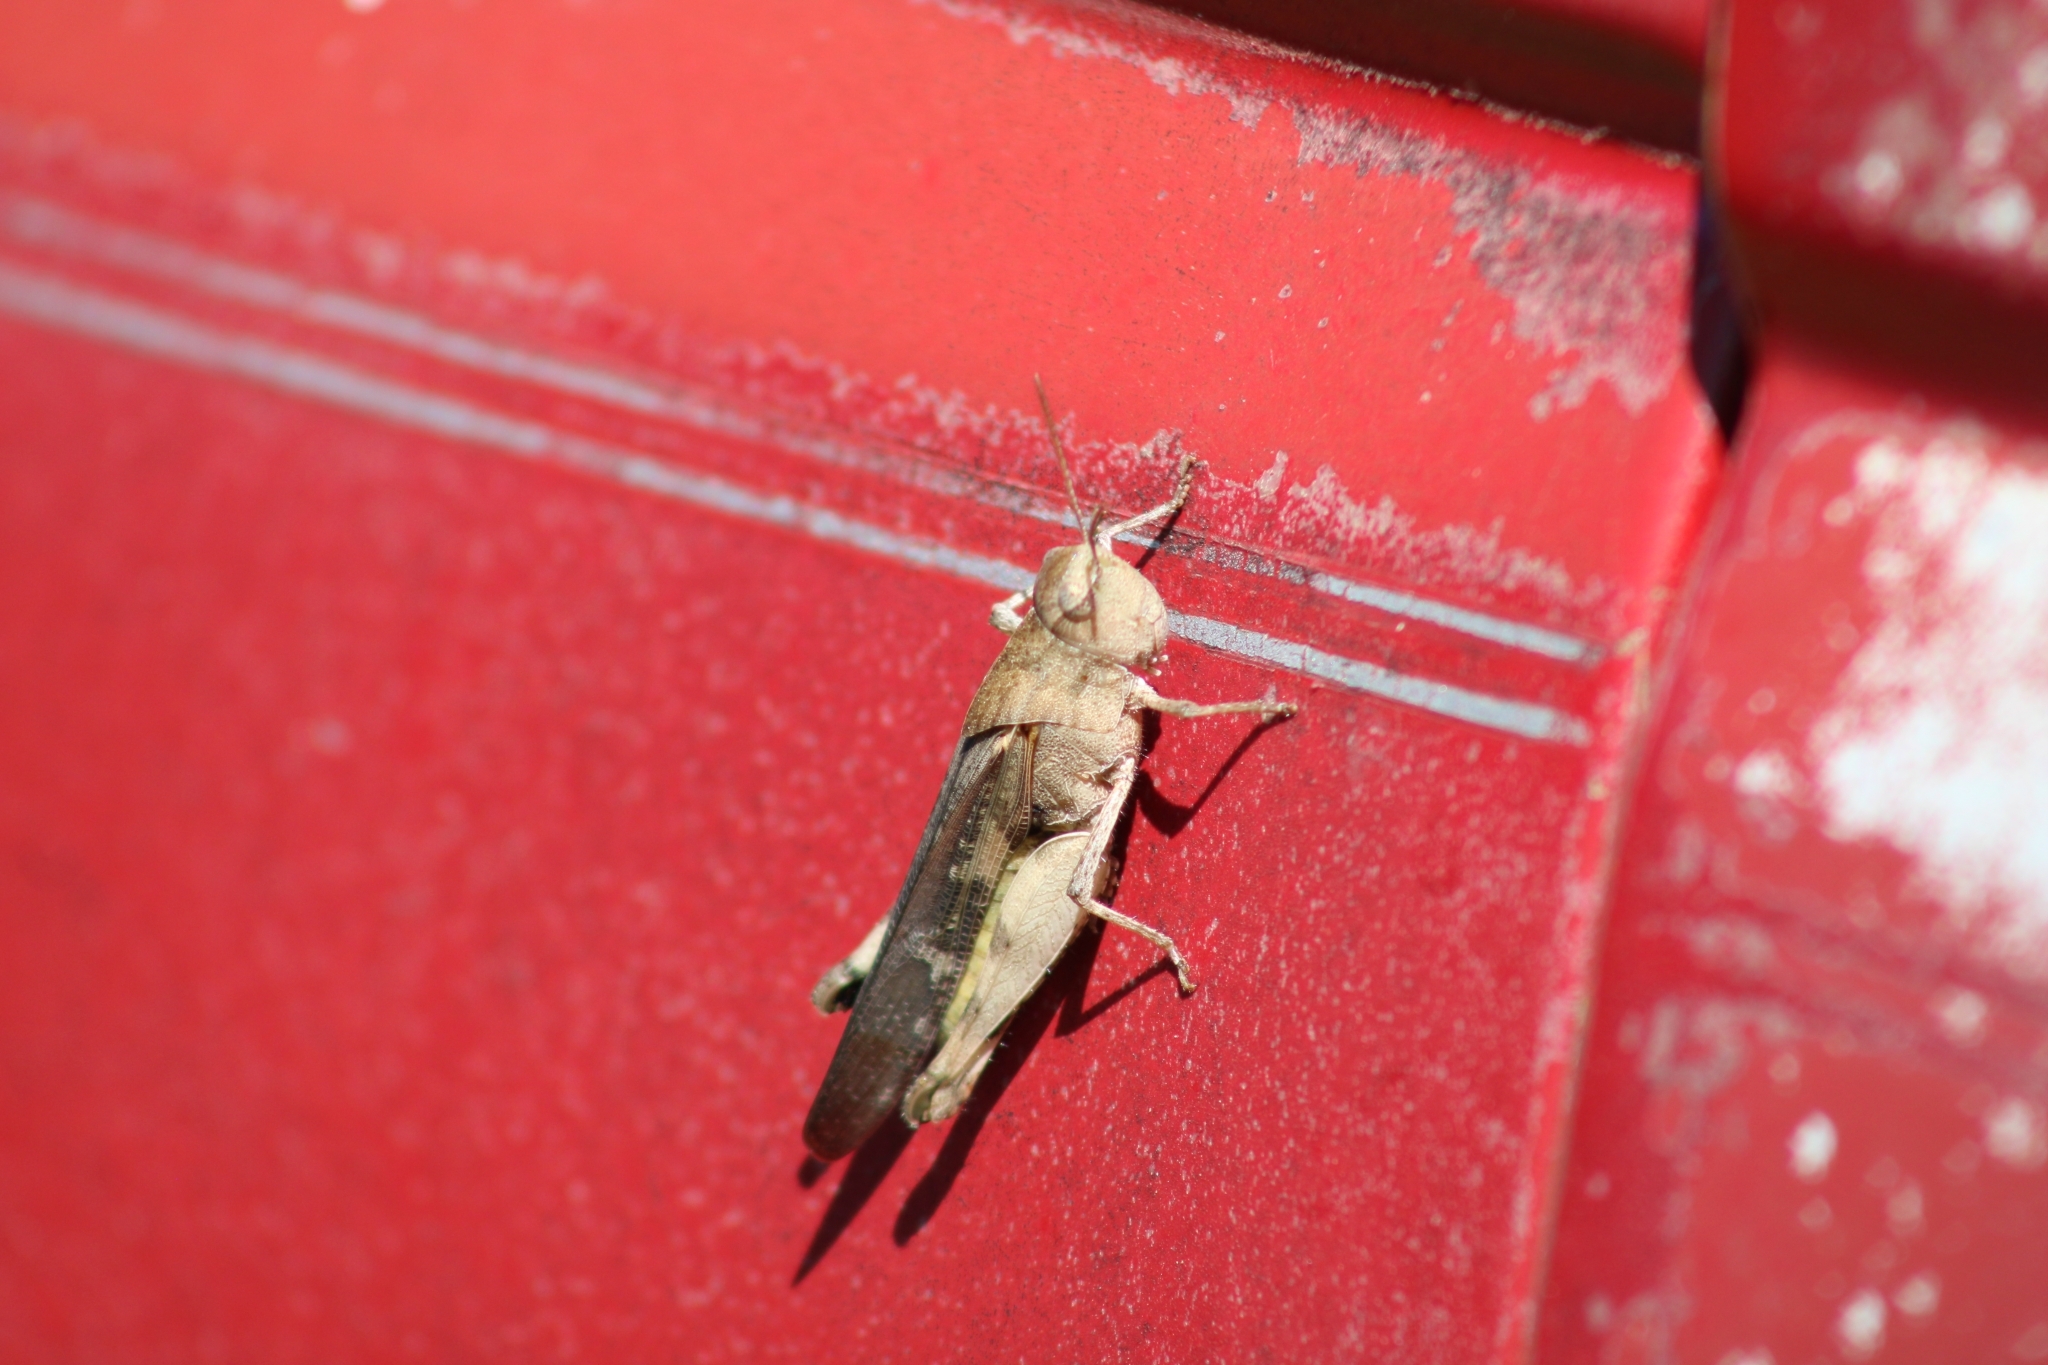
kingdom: Animalia
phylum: Arthropoda
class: Insecta
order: Orthoptera
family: Acrididae
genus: Chortophaga
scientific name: Chortophaga viridifasciata
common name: Green-striped grasshopper
